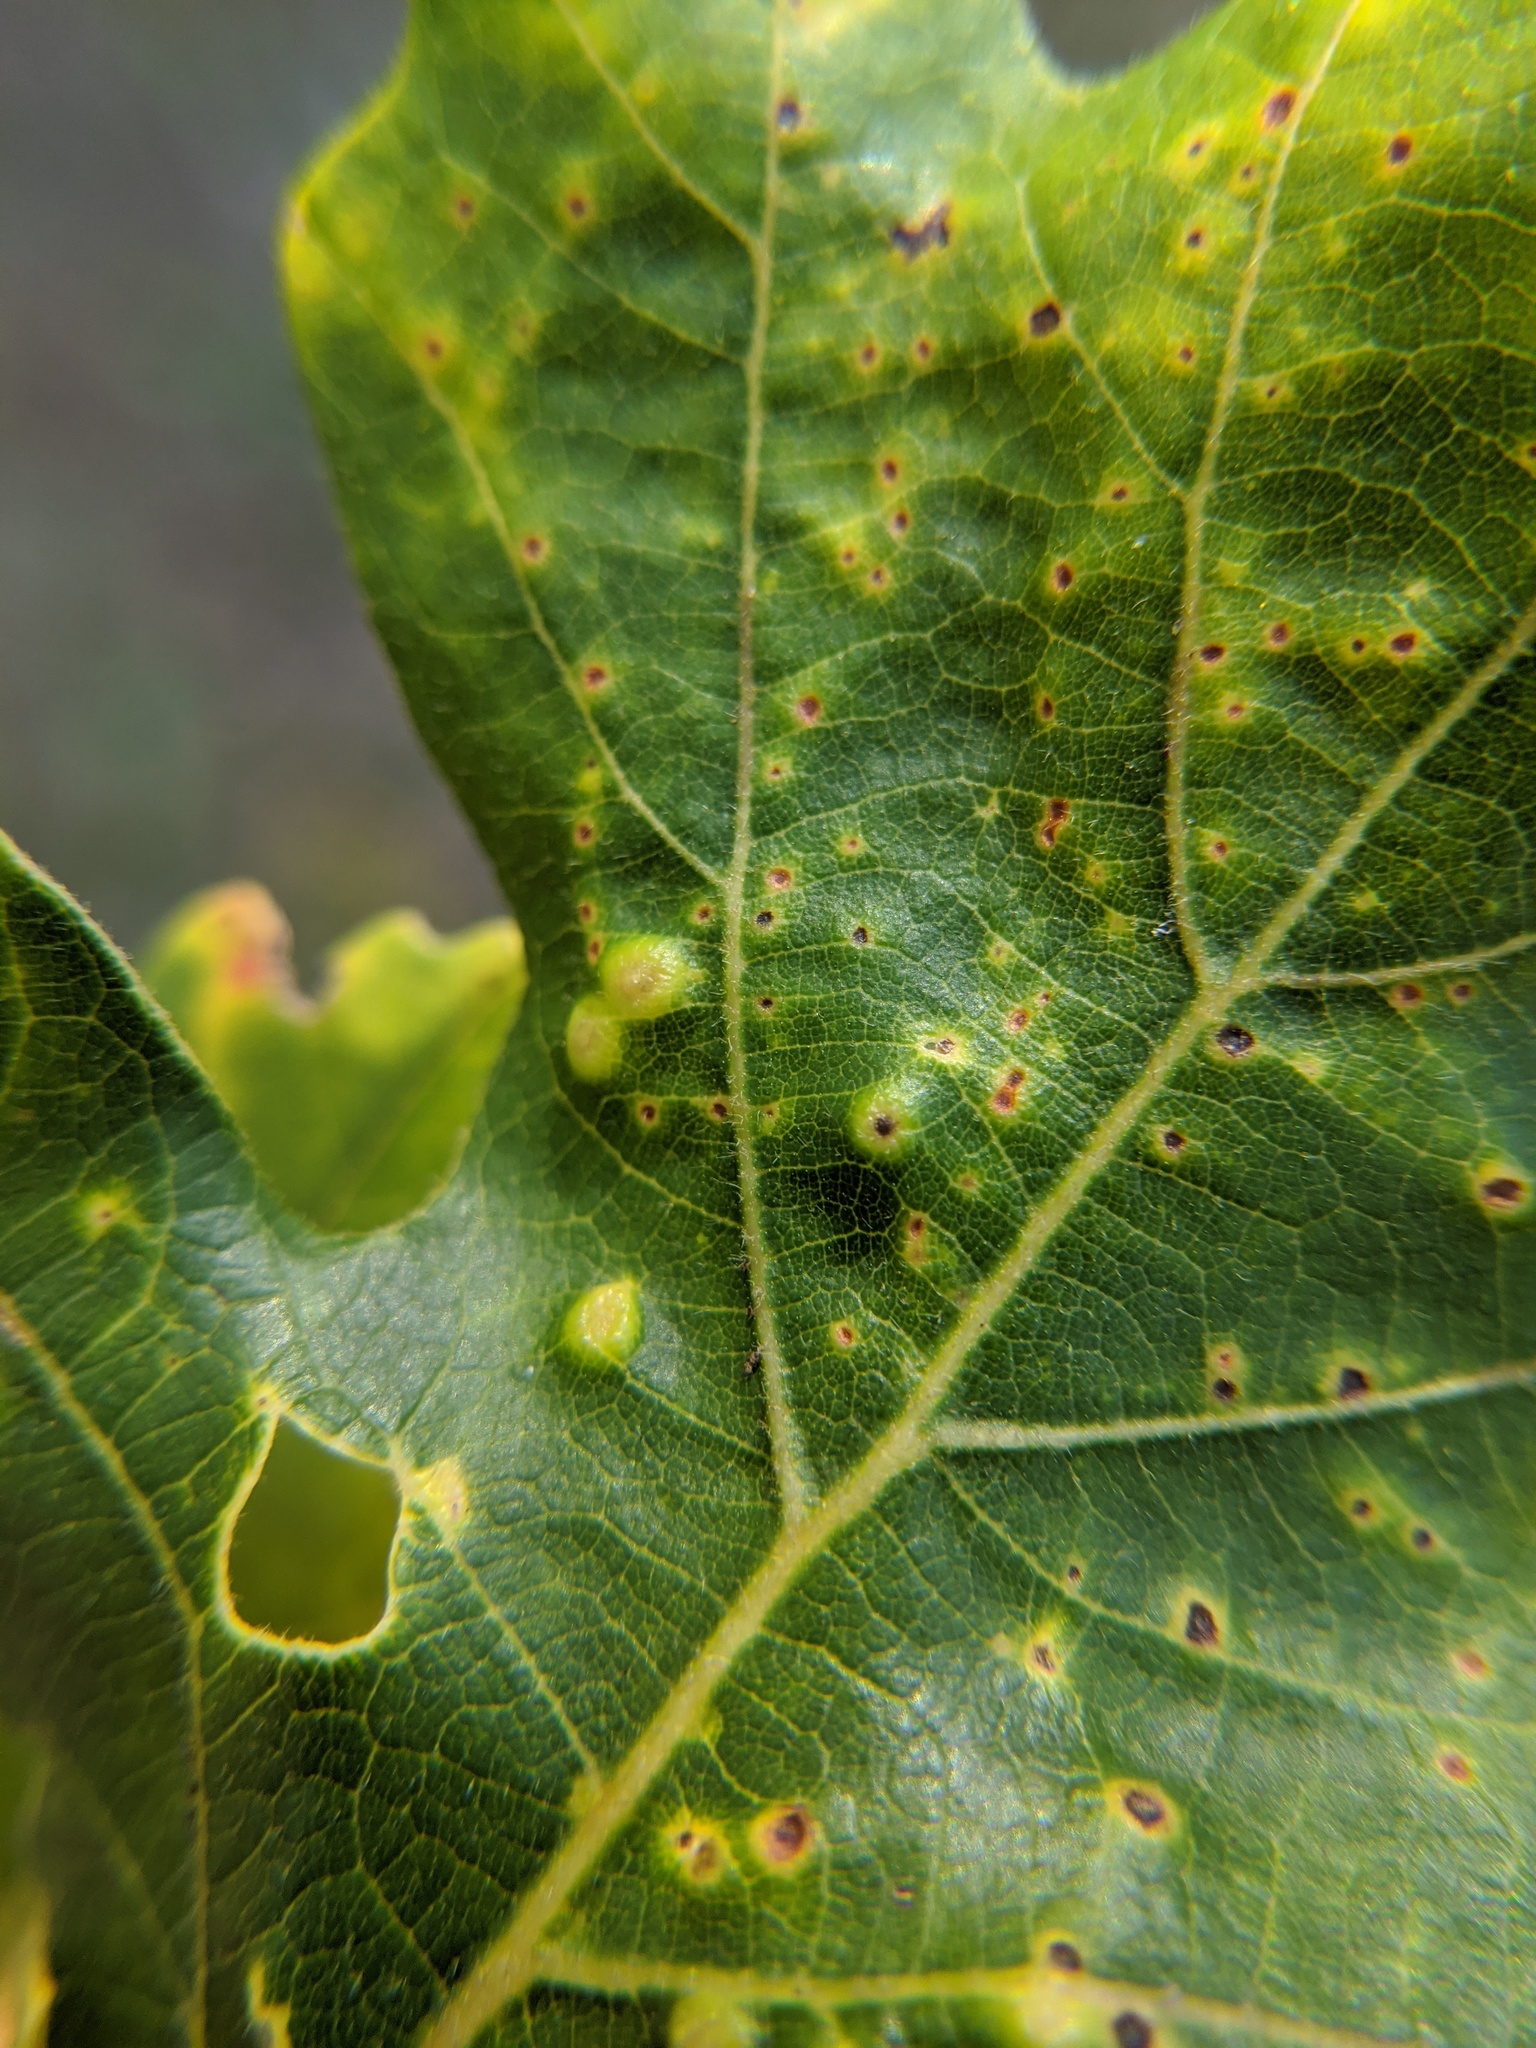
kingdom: Animalia
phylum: Arthropoda
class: Insecta
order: Hymenoptera
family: Cynipidae
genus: Neuroterus
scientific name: Neuroterus quercusverrucarum
